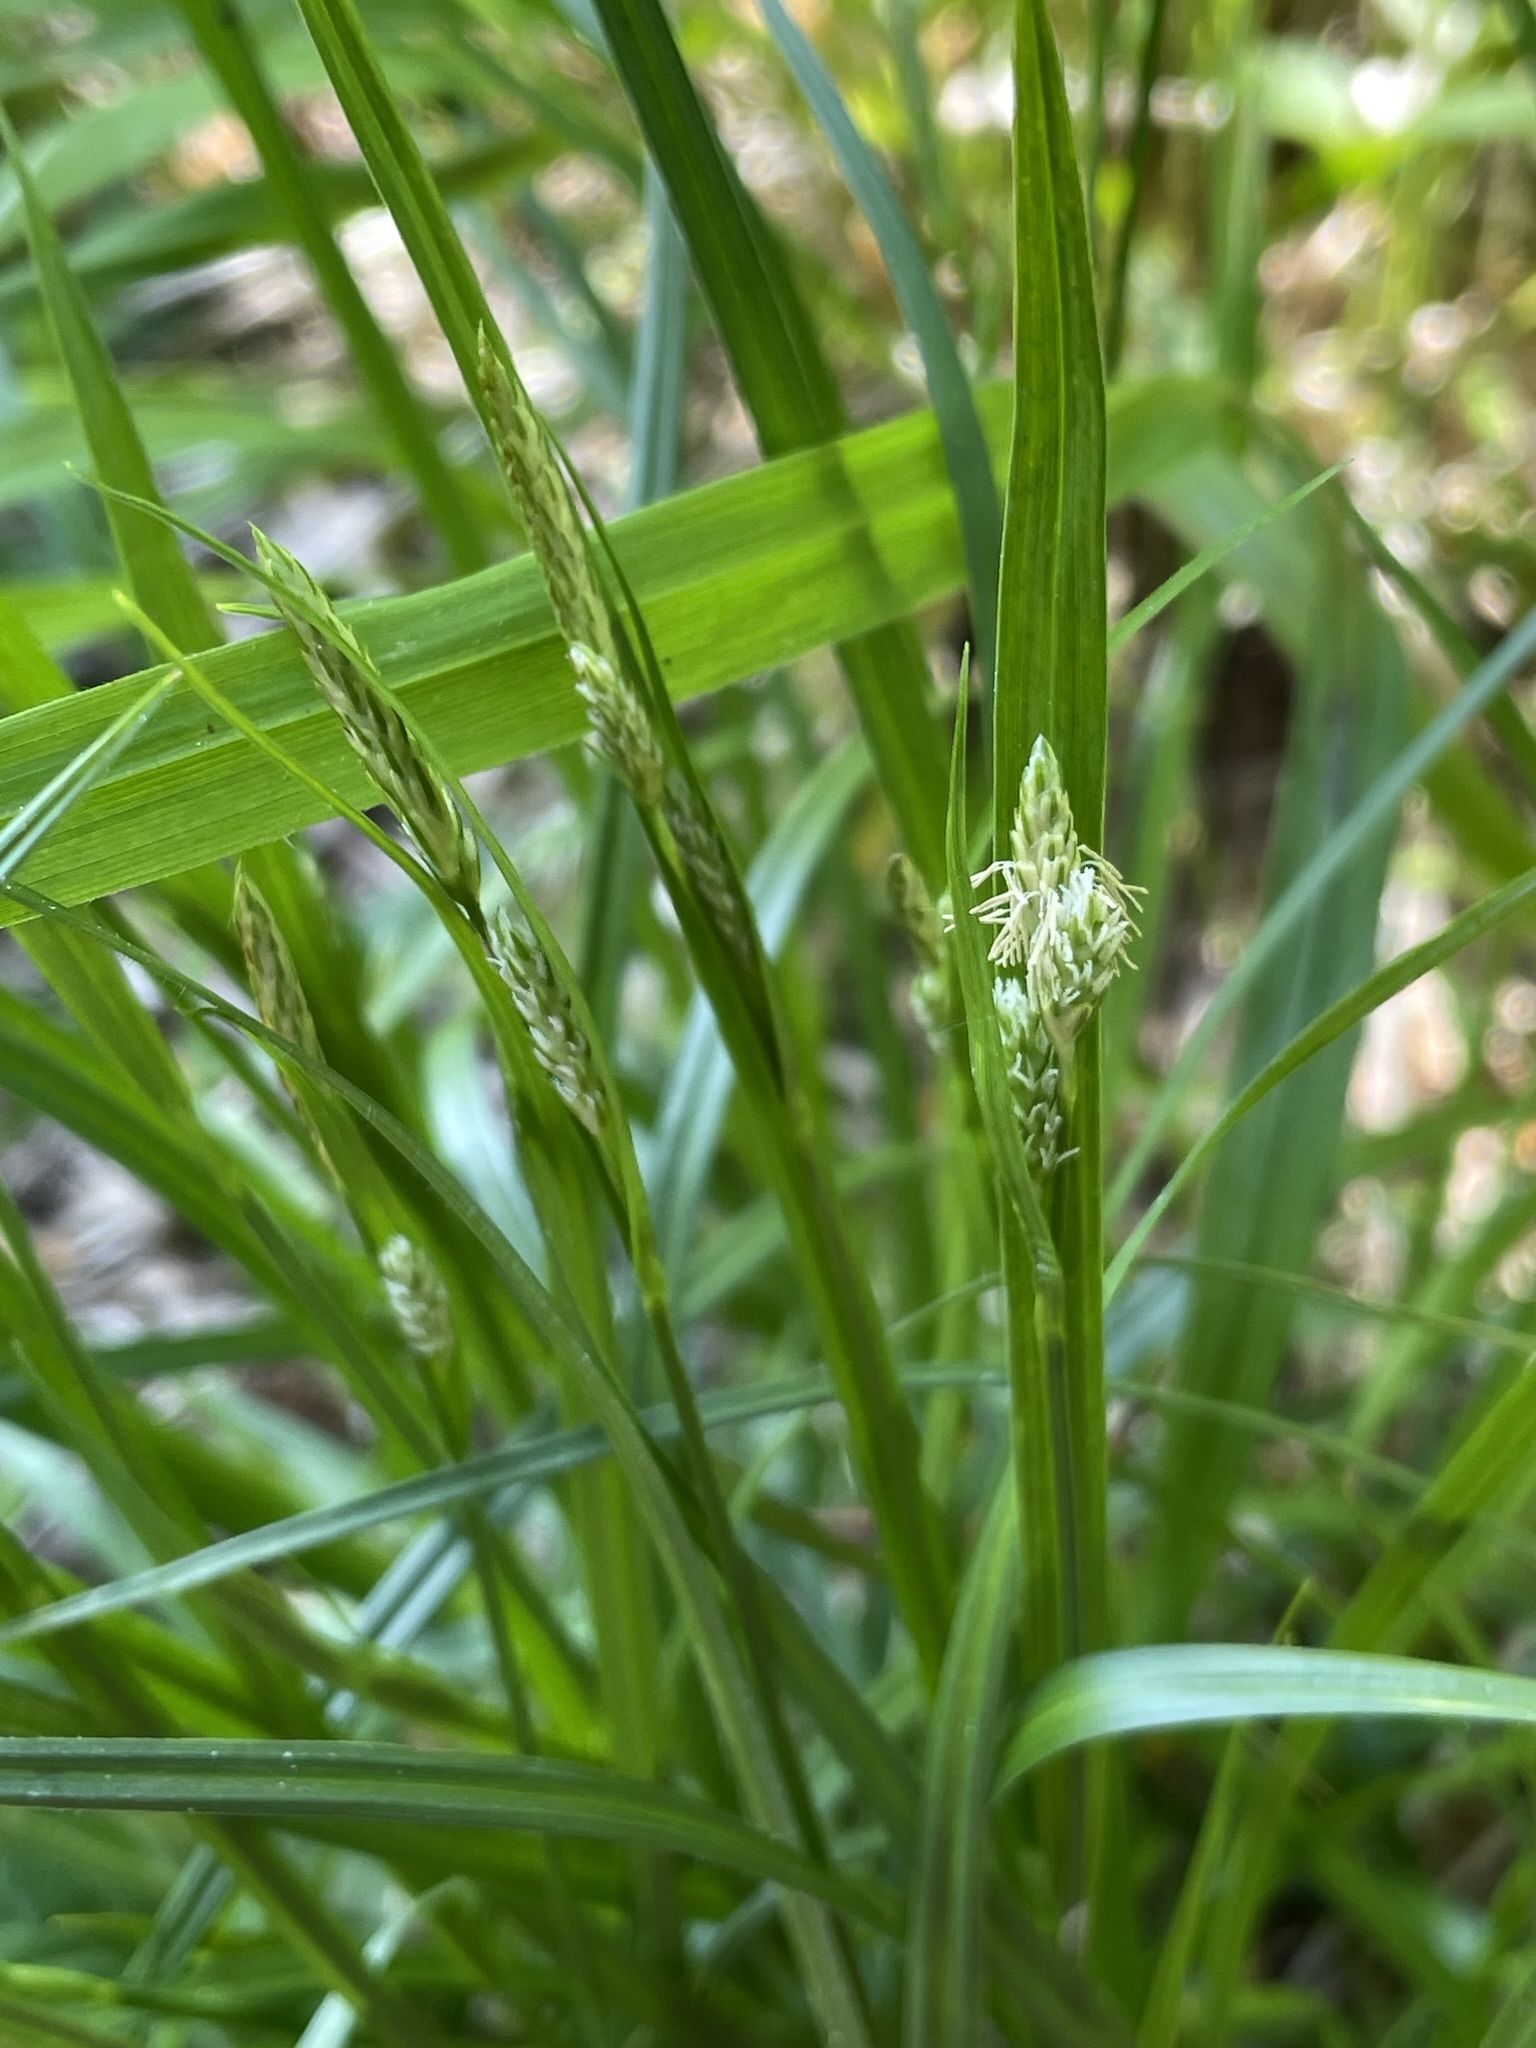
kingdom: Plantae
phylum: Tracheophyta
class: Liliopsida
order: Poales
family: Cyperaceae
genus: Carex
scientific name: Carex pallescens
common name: Pale sedge
